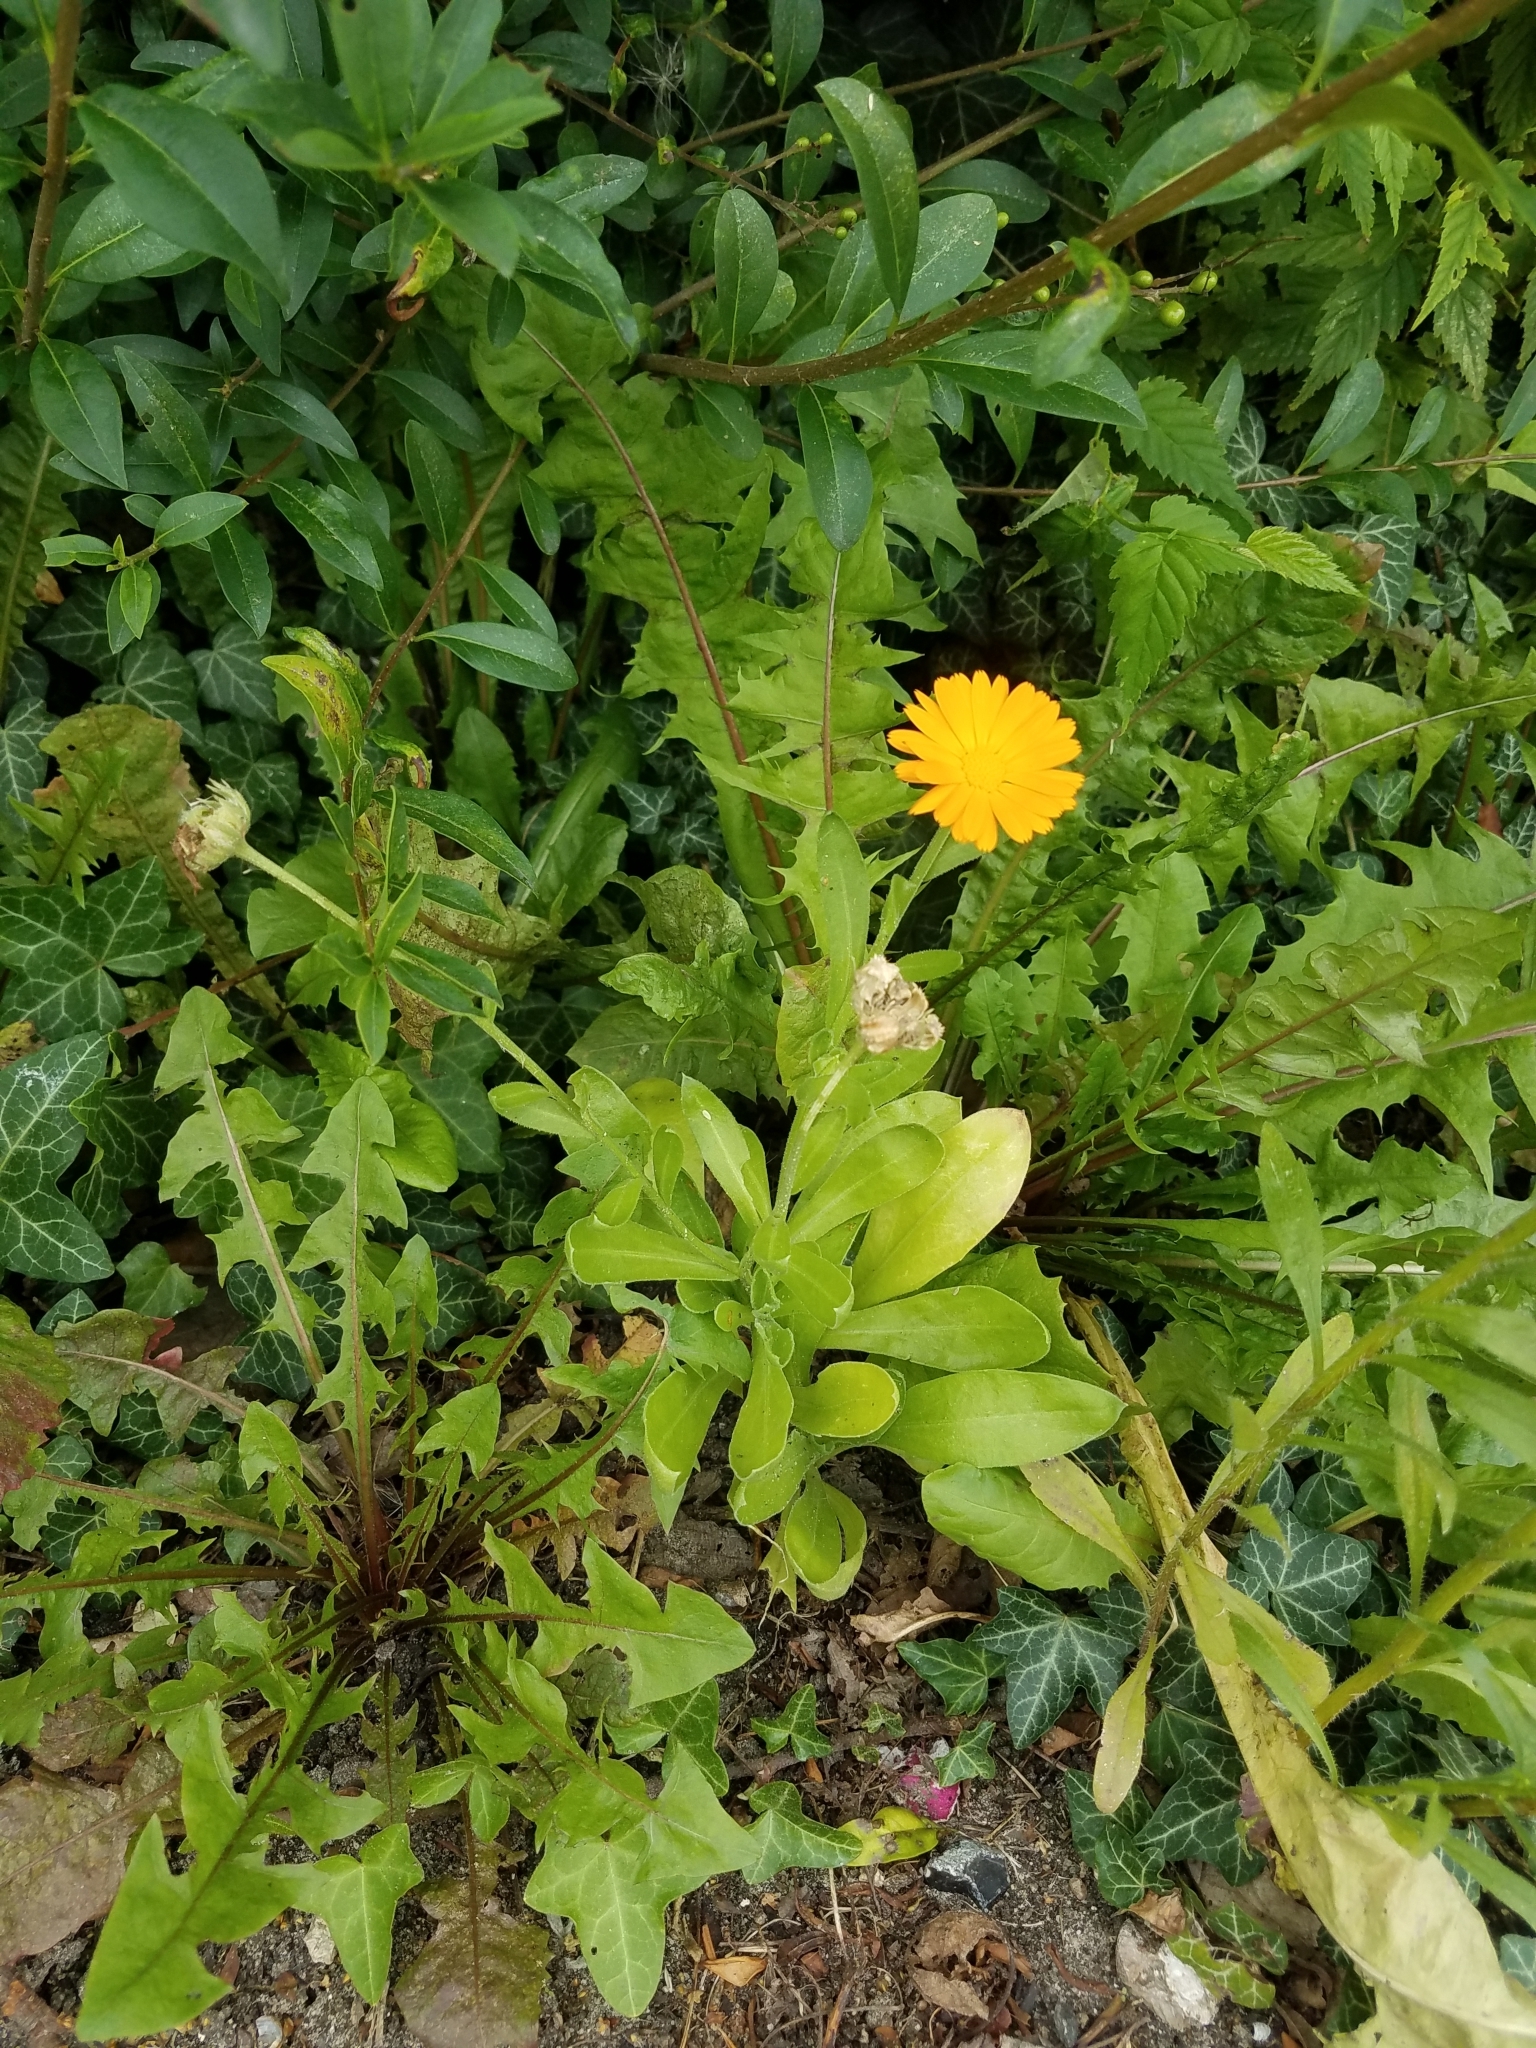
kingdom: Plantae
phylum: Tracheophyta
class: Magnoliopsida
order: Asterales
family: Asteraceae
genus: Calendula
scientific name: Calendula officinalis
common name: Pot marigold
